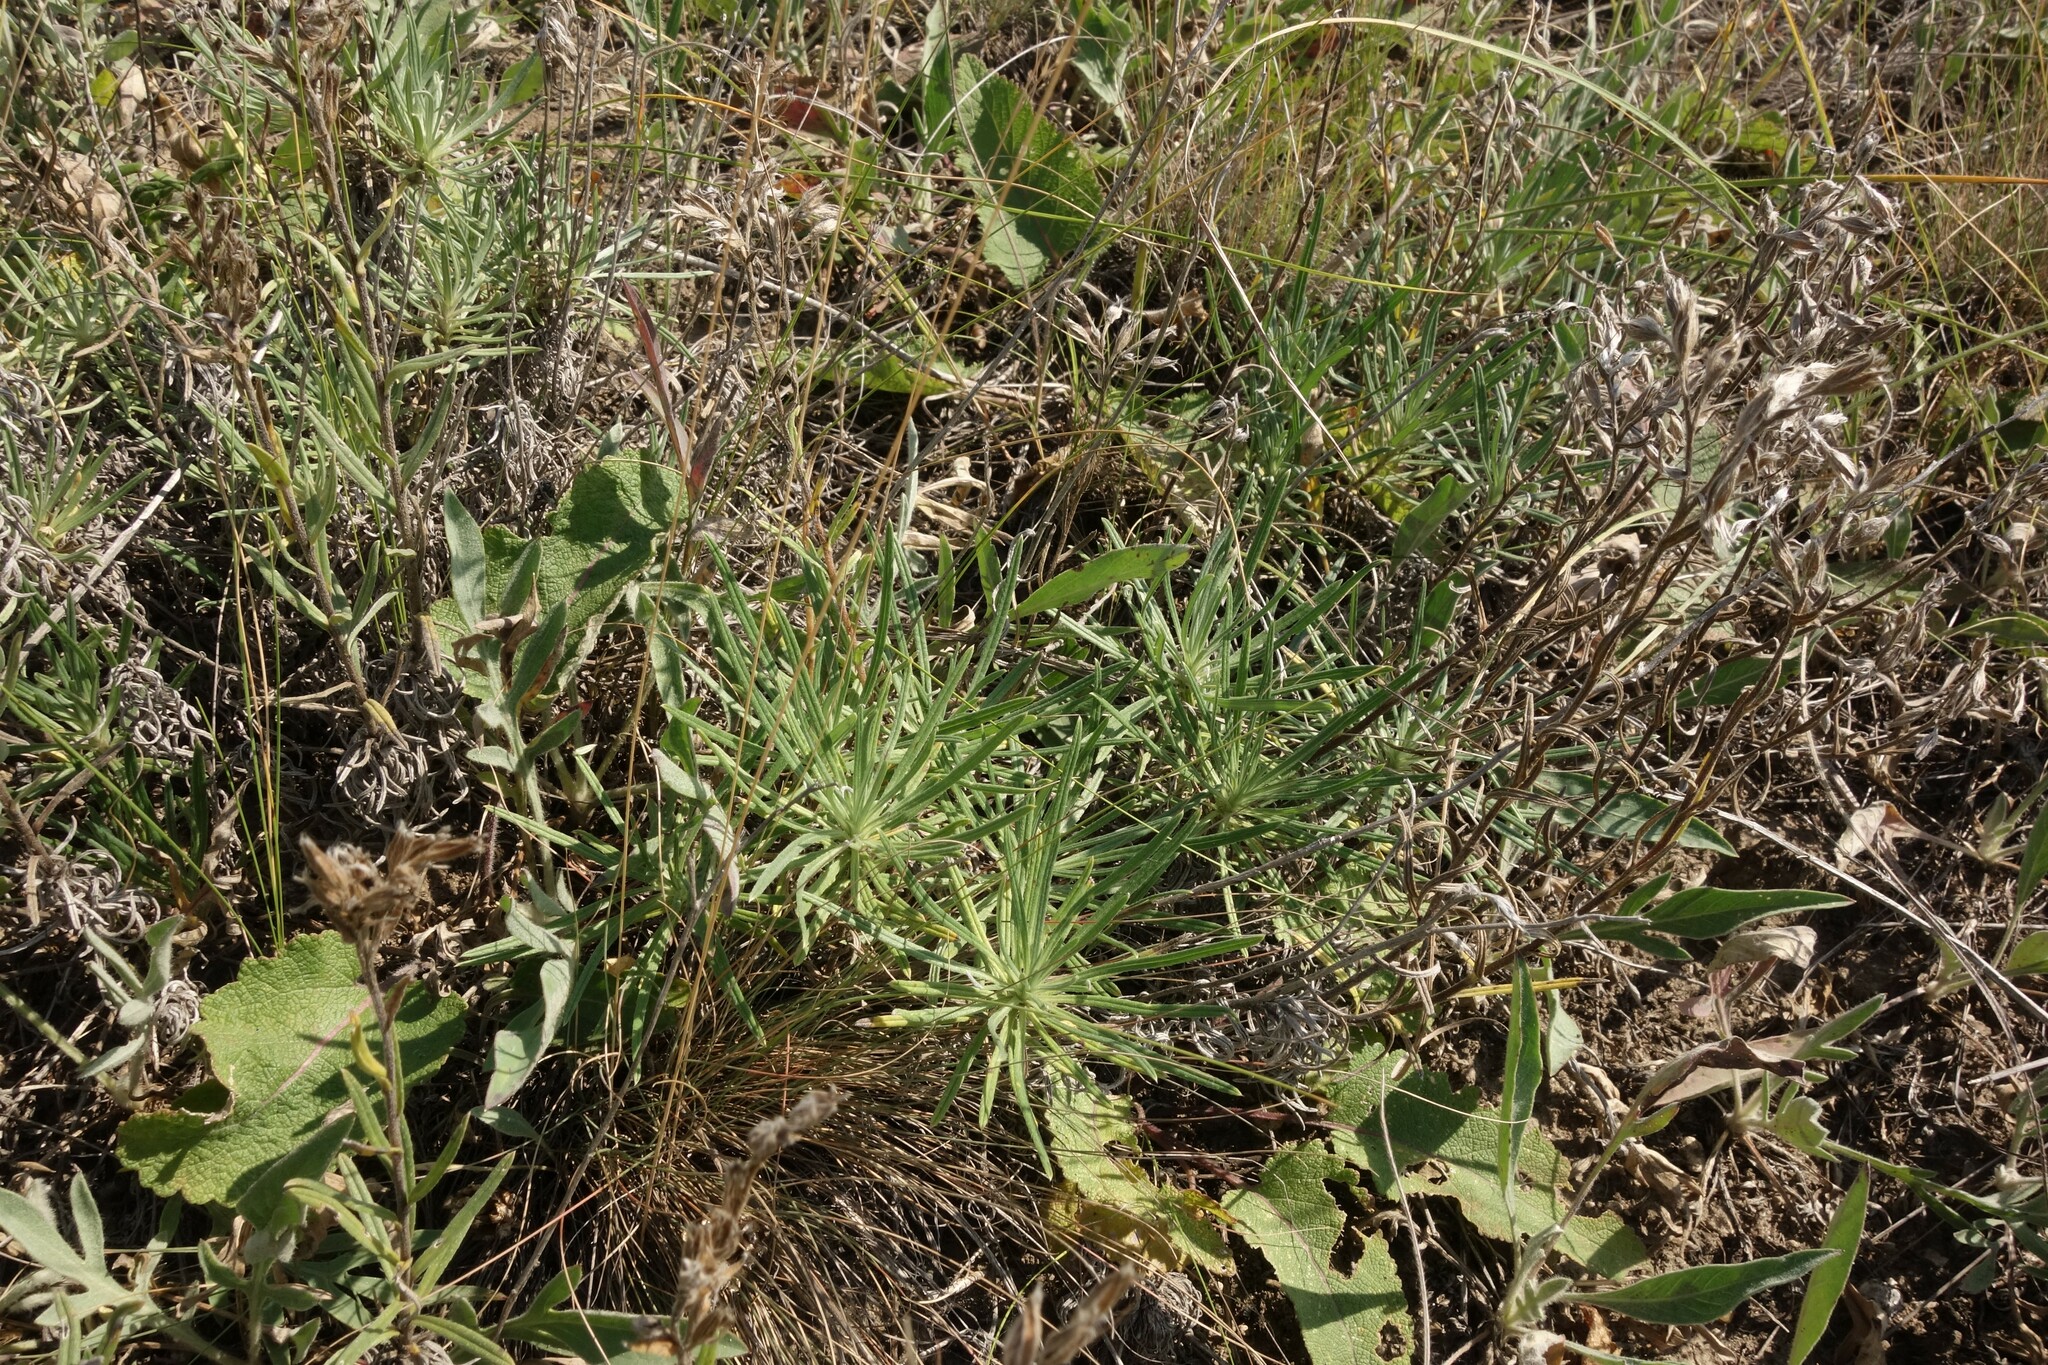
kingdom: Plantae
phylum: Tracheophyta
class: Magnoliopsida
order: Boraginales
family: Boraginaceae
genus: Onosma
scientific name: Onosma simplicissima
